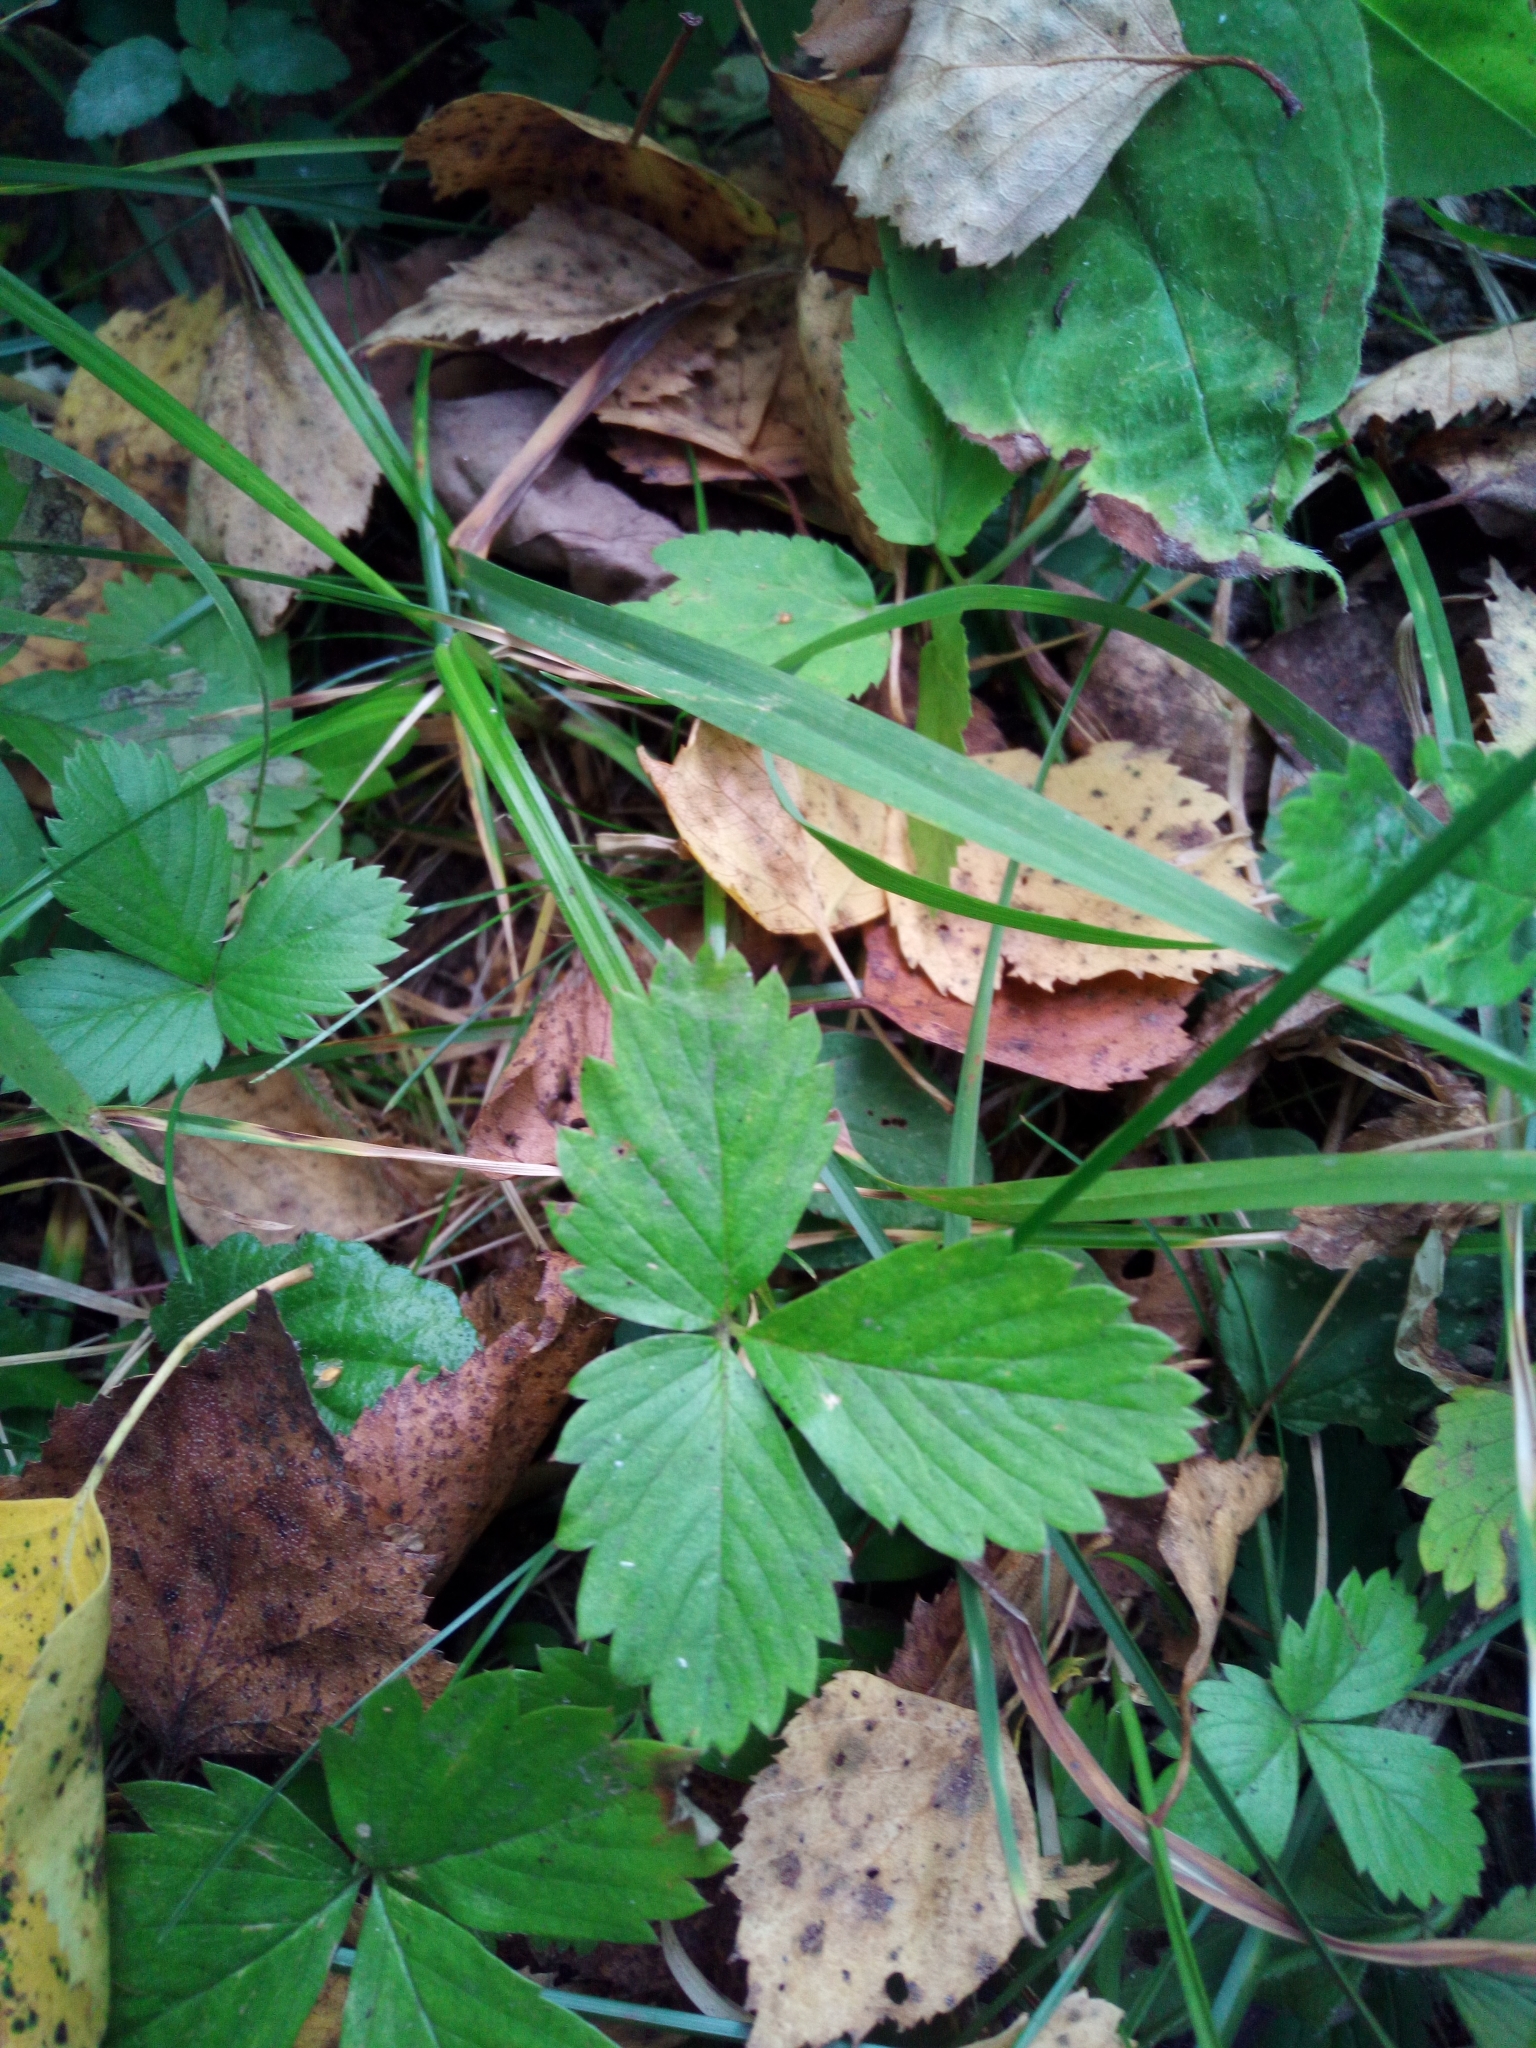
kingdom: Plantae
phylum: Tracheophyta
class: Magnoliopsida
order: Rosales
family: Rosaceae
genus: Fragaria
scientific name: Fragaria vesca
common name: Wild strawberry
